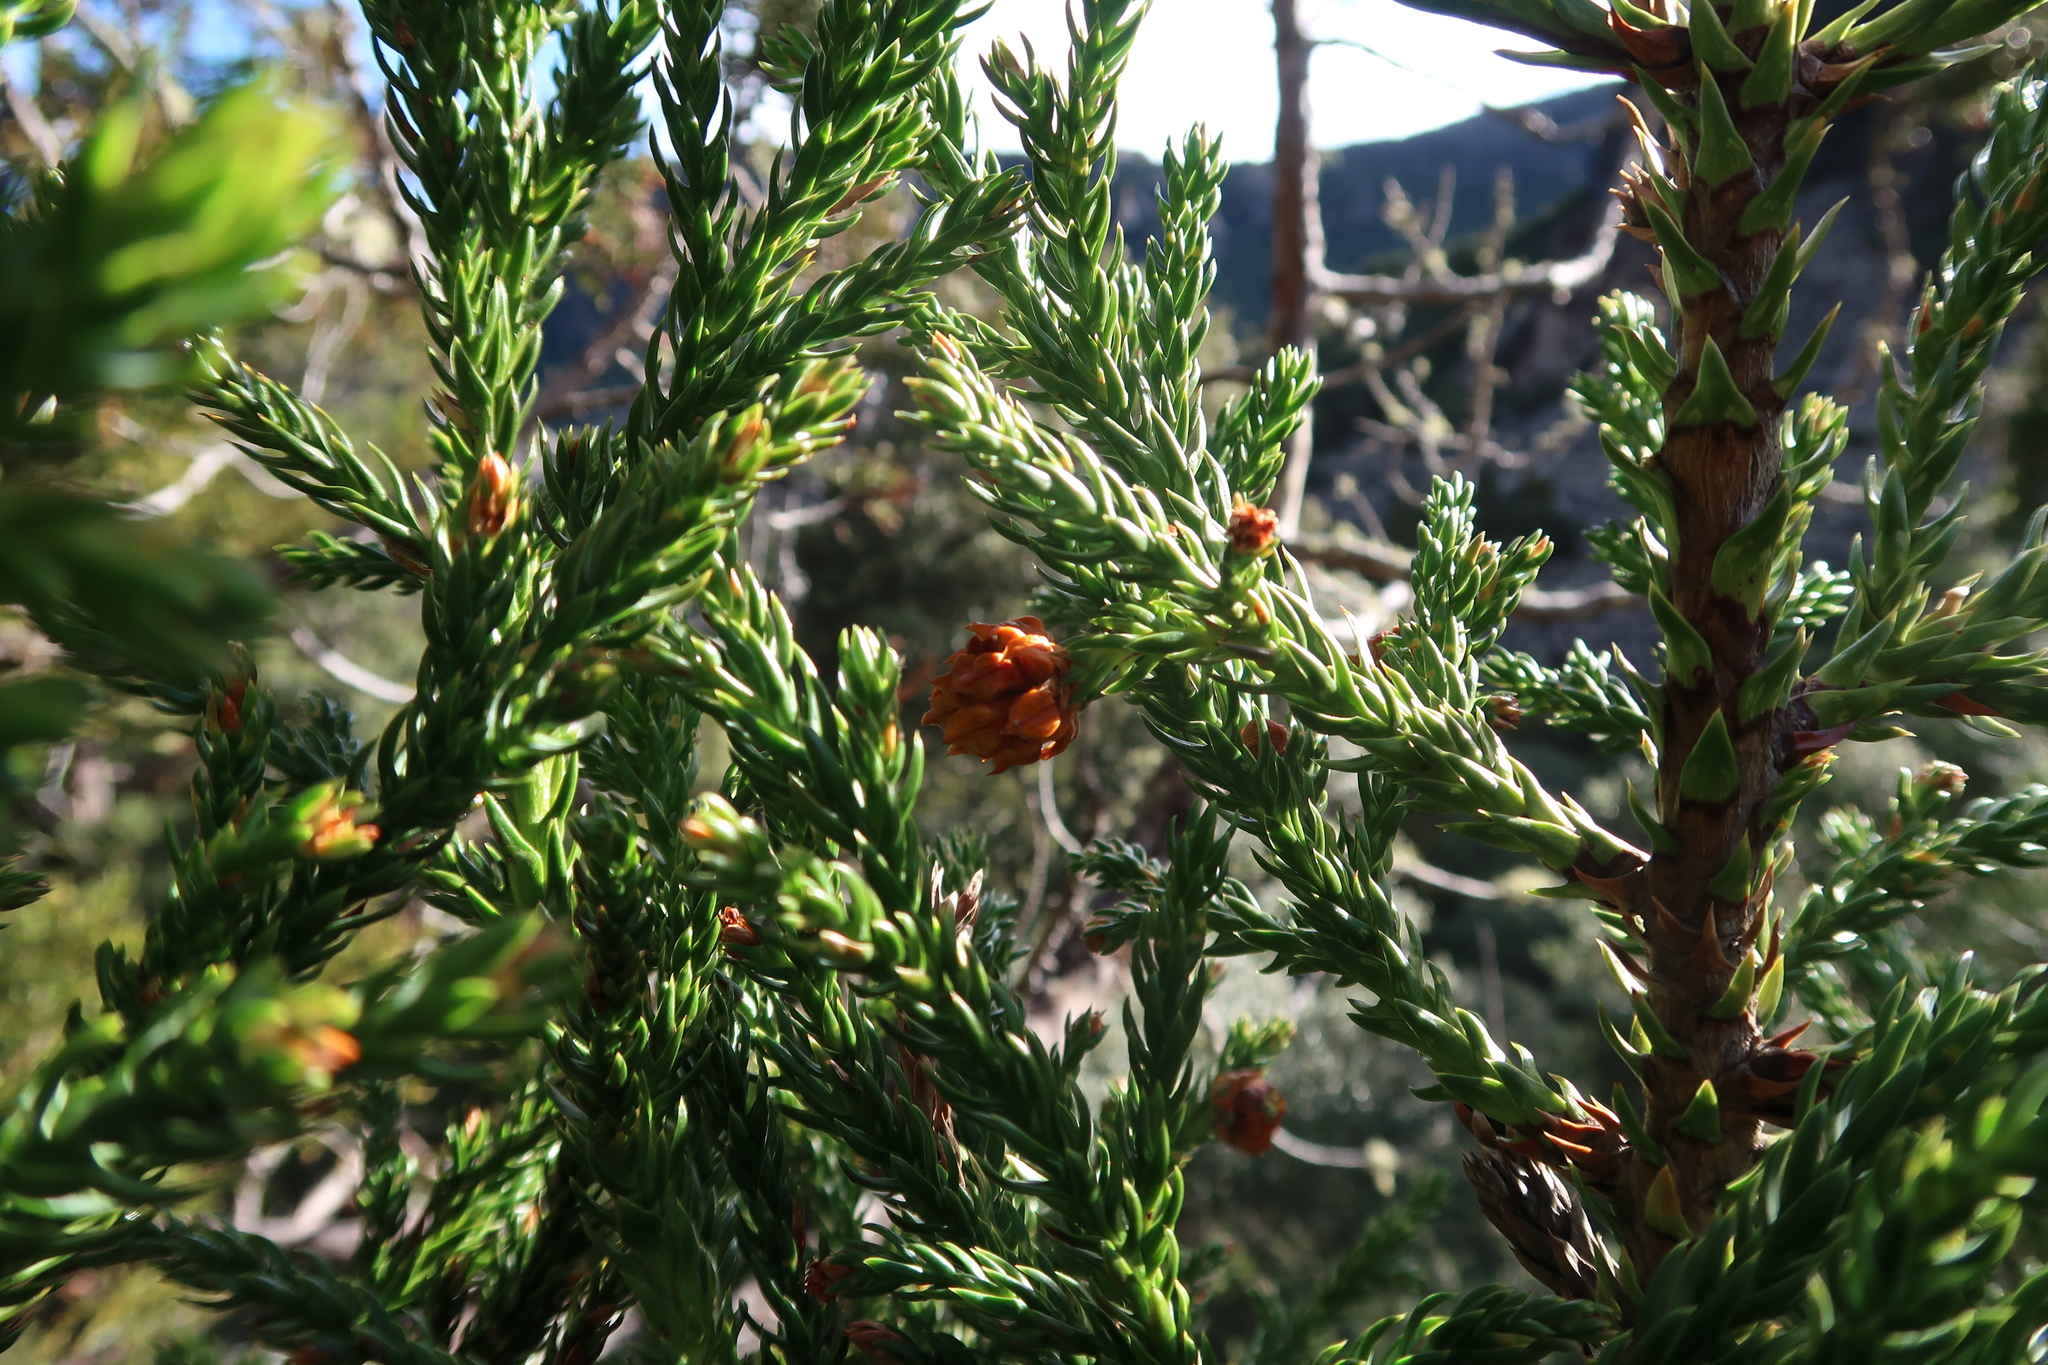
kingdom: Plantae
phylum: Tracheophyta
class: Pinopsida
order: Pinales
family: Cupressaceae
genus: Athrotaxis
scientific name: Athrotaxis selaginoides
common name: King william pine
